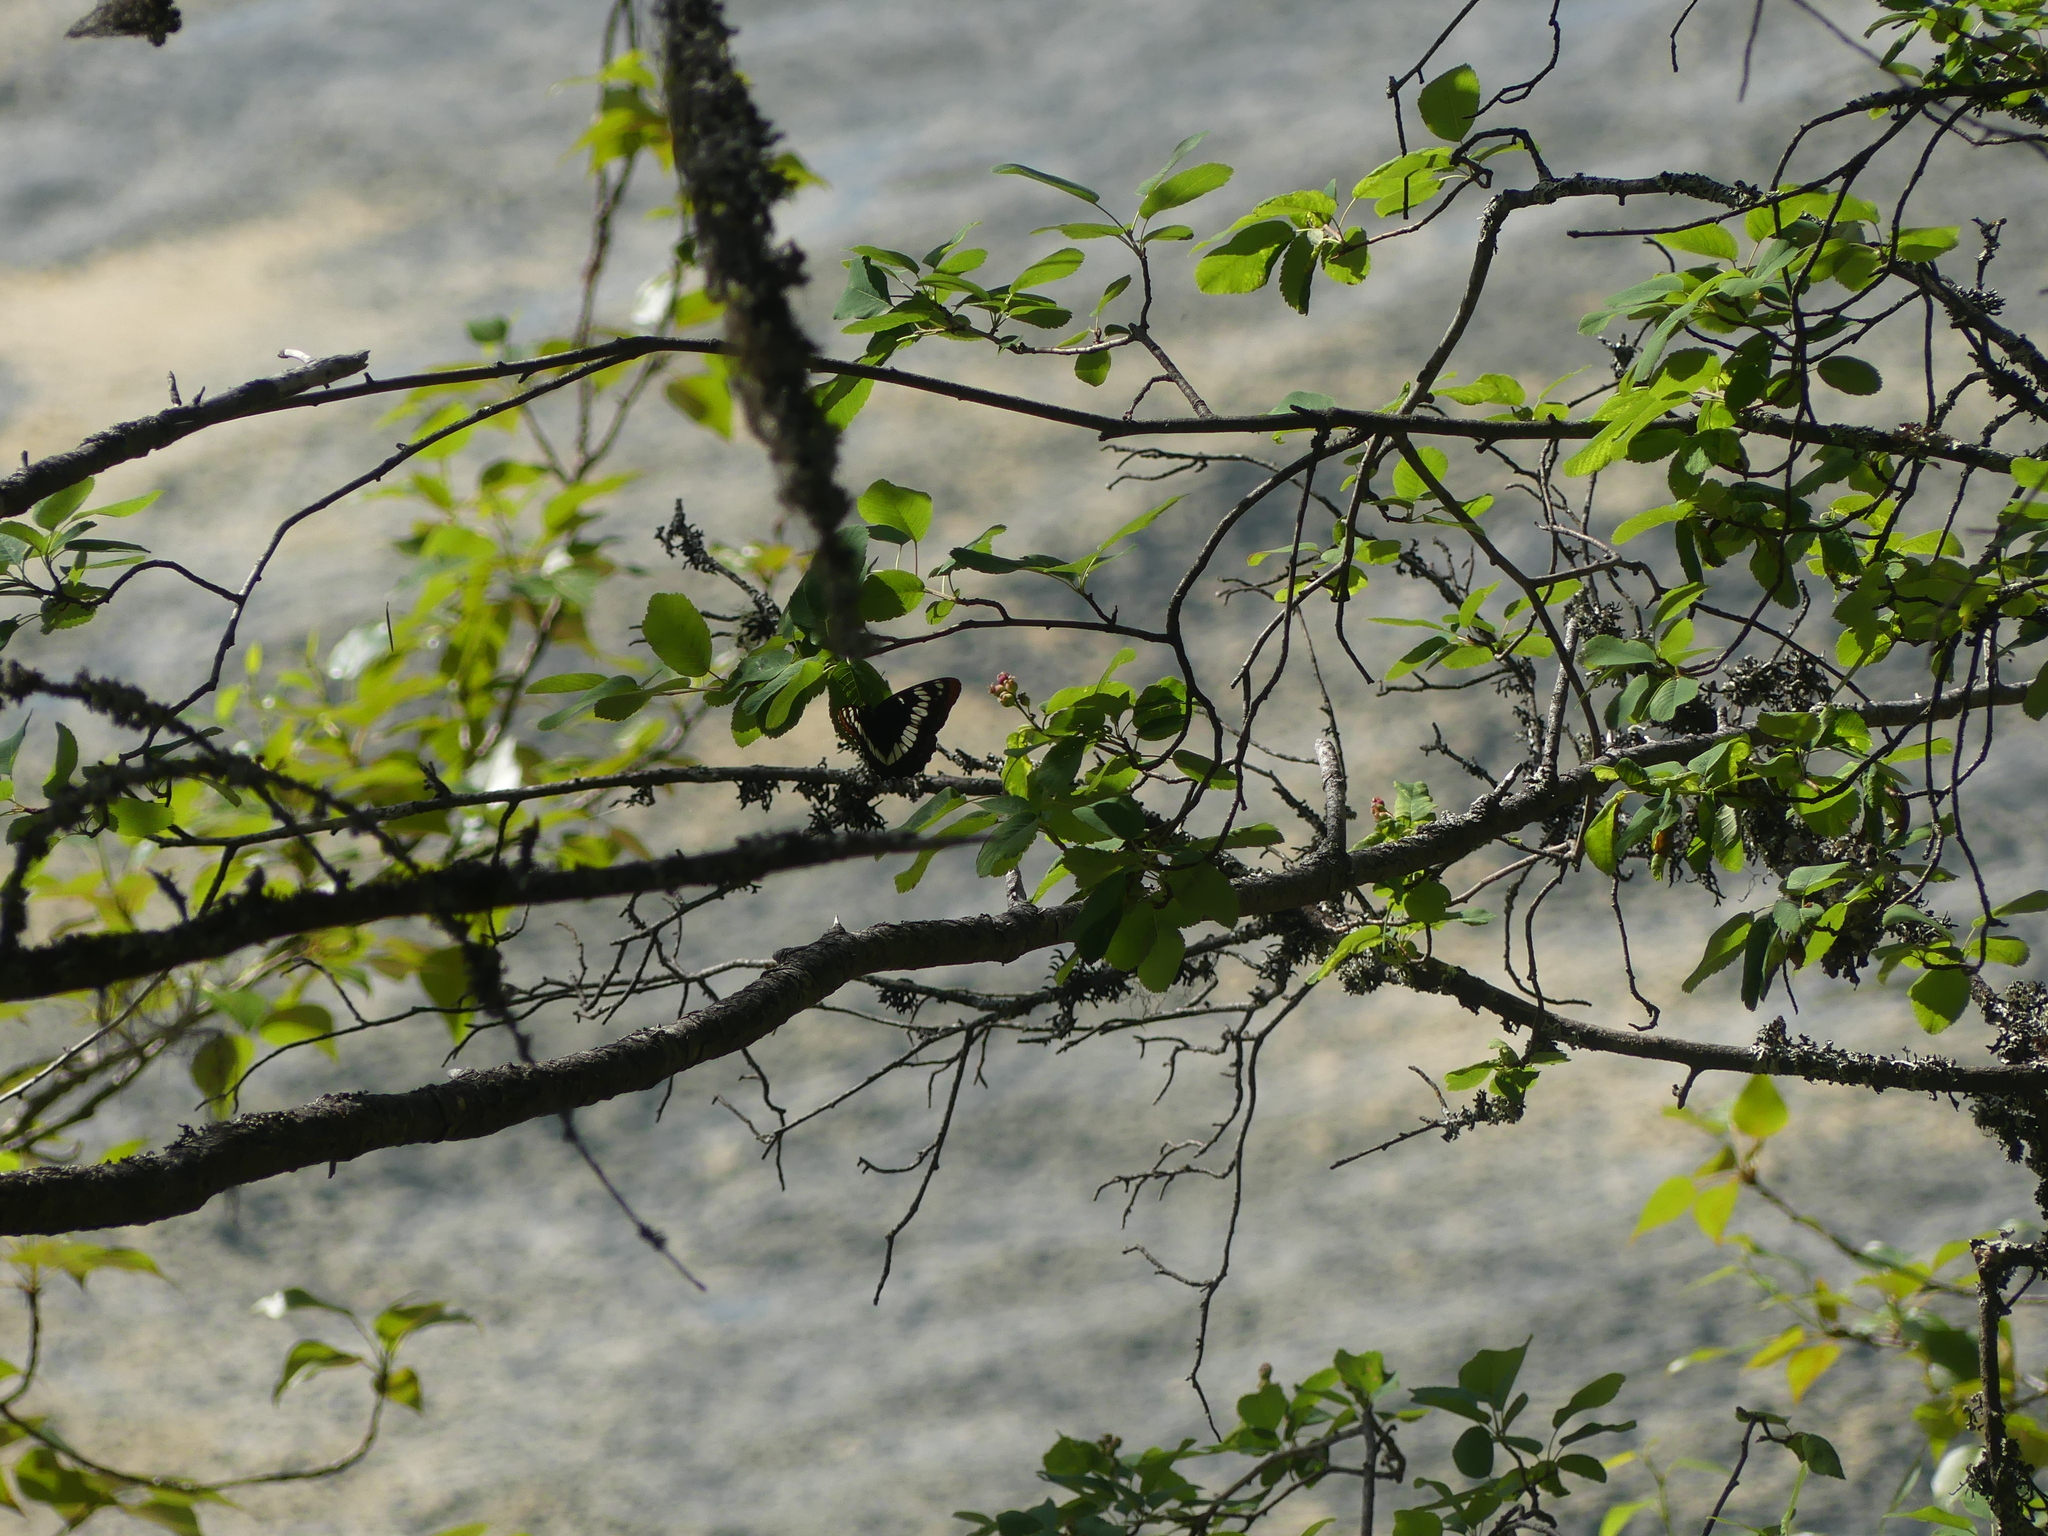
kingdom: Animalia
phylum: Arthropoda
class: Insecta
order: Lepidoptera
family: Nymphalidae
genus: Limenitis
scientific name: Limenitis lorquini
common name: Lorquin's admiral
